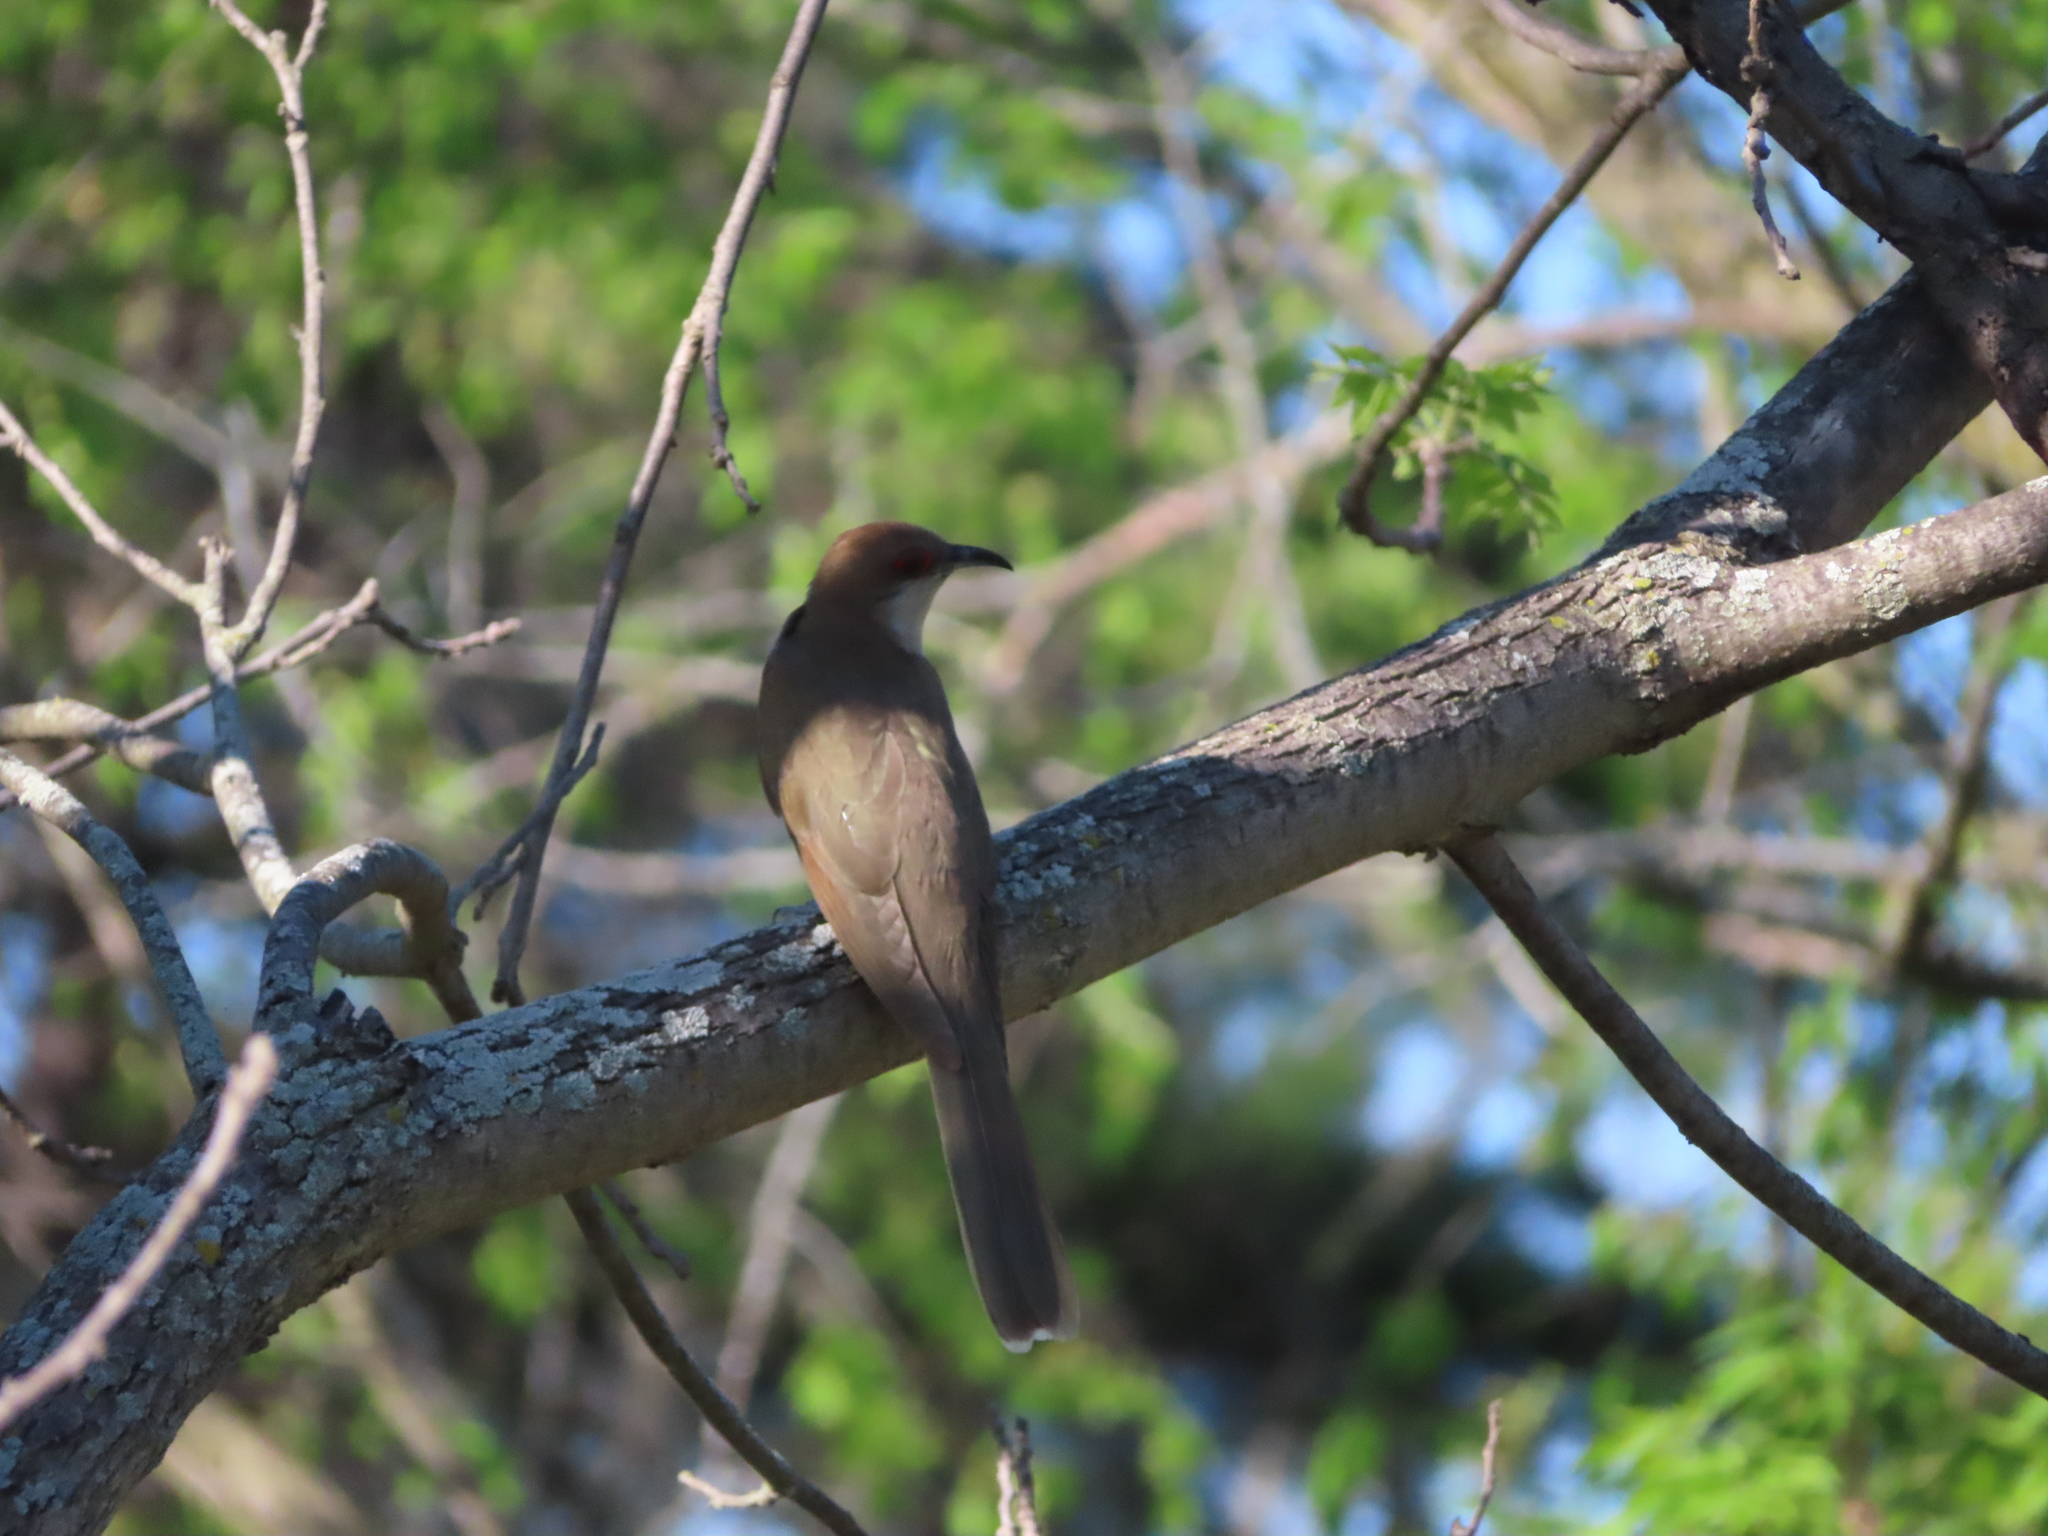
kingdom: Animalia
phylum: Chordata
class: Aves
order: Cuculiformes
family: Cuculidae
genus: Coccyzus
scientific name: Coccyzus erythropthalmus
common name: Black-billed cuckoo
